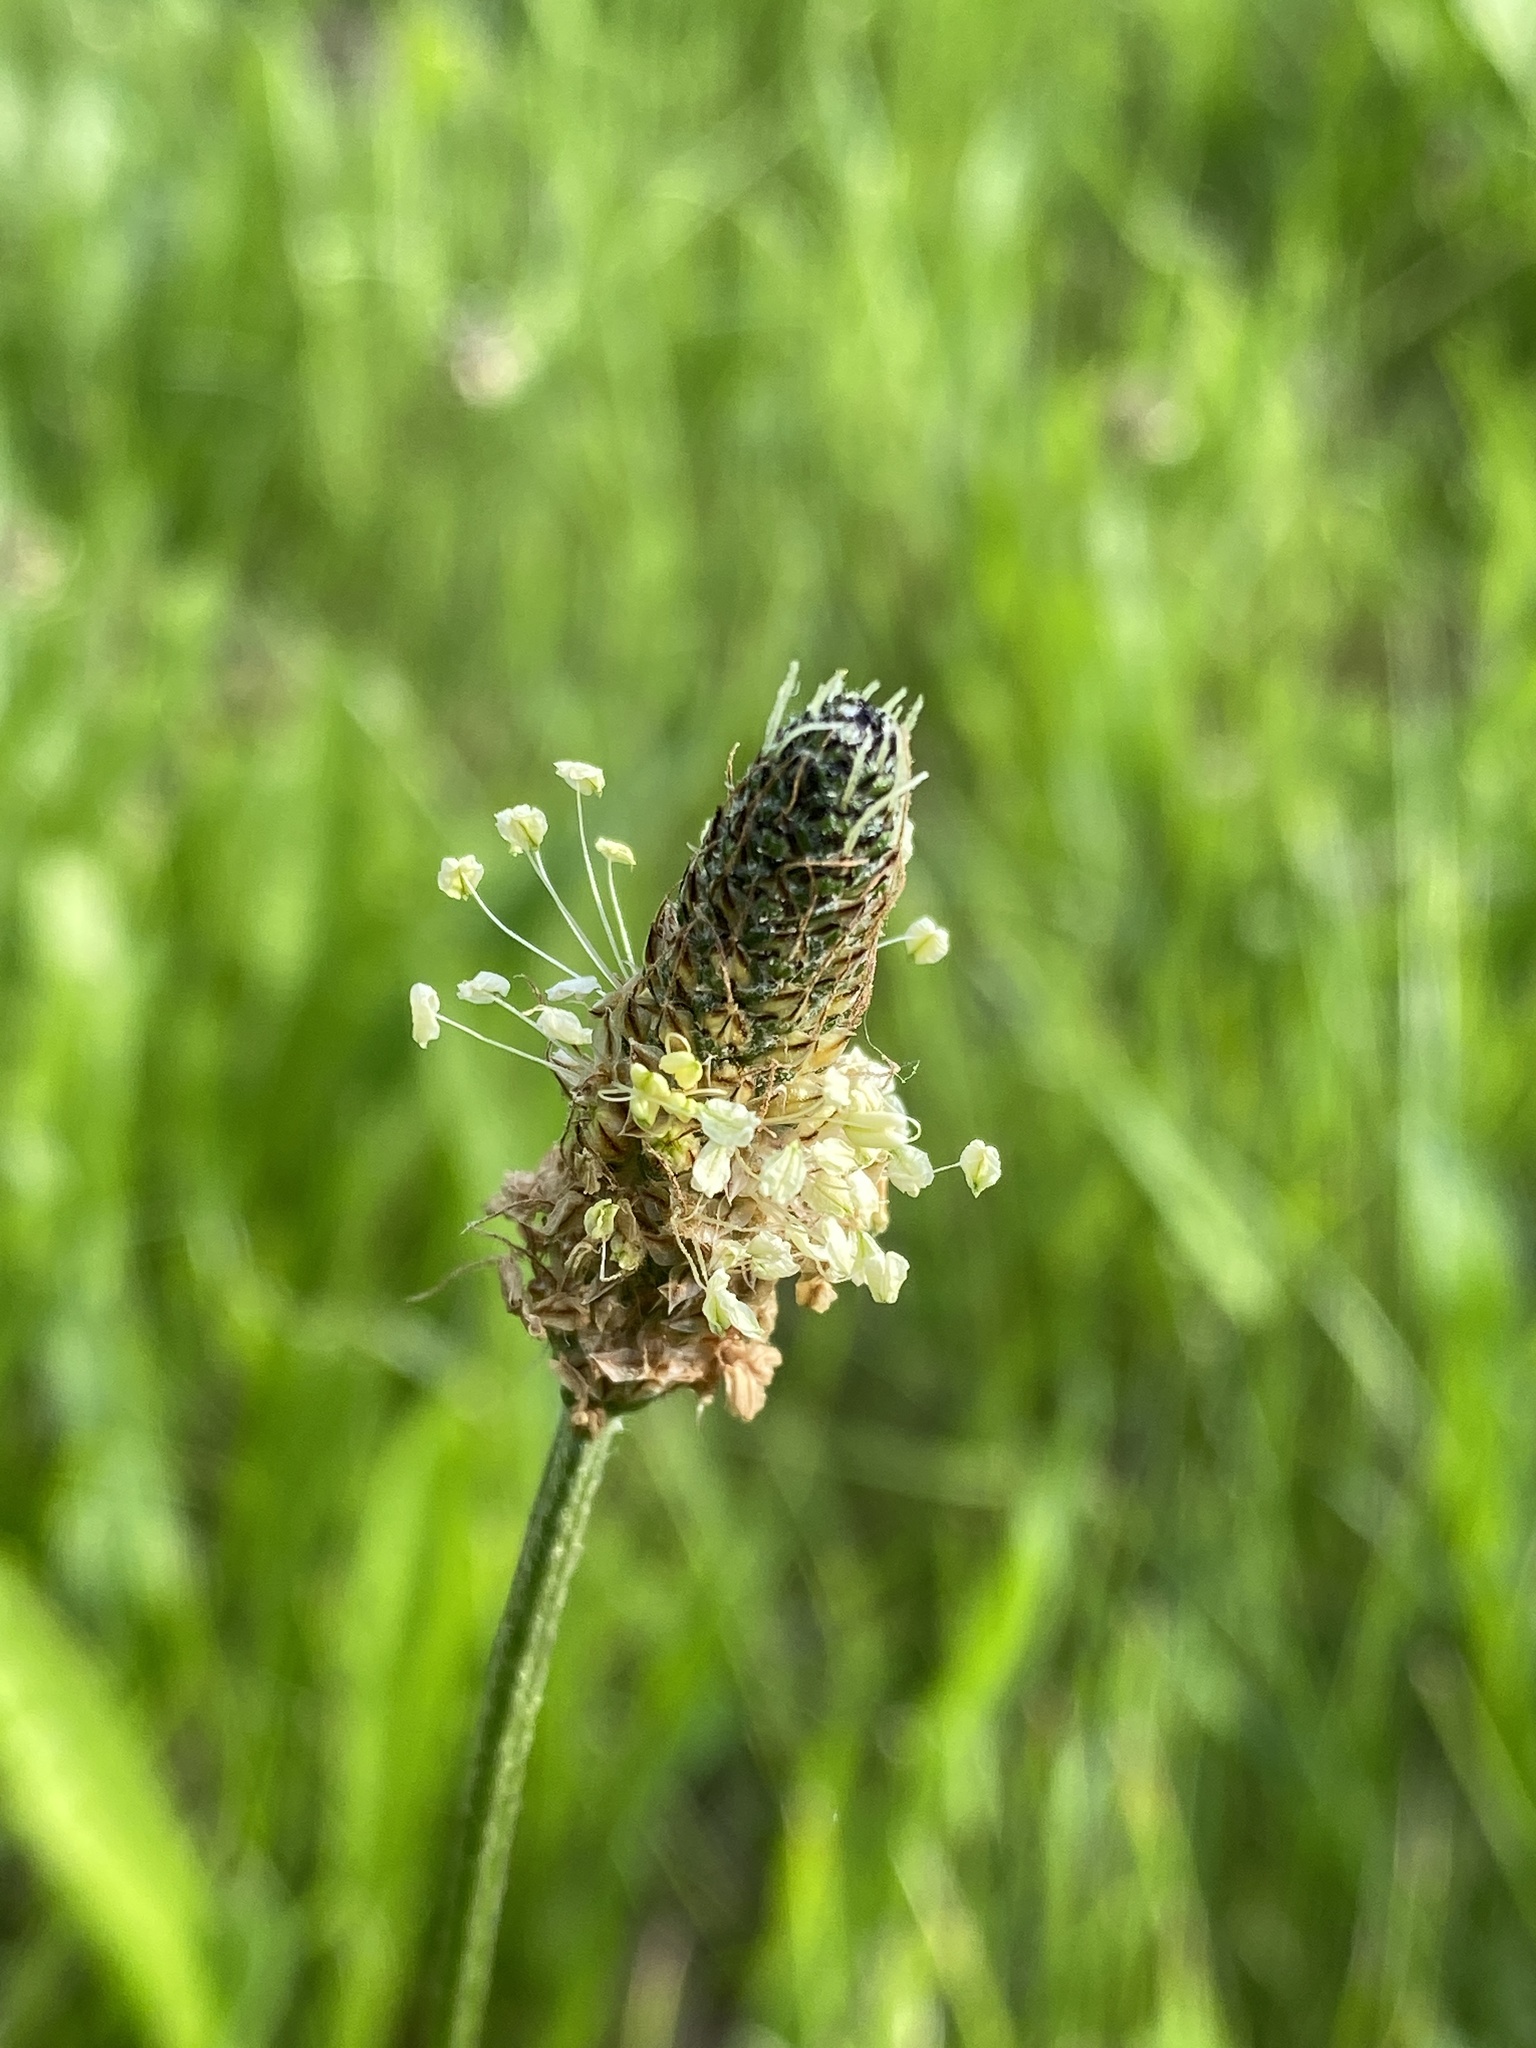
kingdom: Plantae
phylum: Tracheophyta
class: Magnoliopsida
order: Lamiales
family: Plantaginaceae
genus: Plantago
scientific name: Plantago lanceolata
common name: Ribwort plantain
